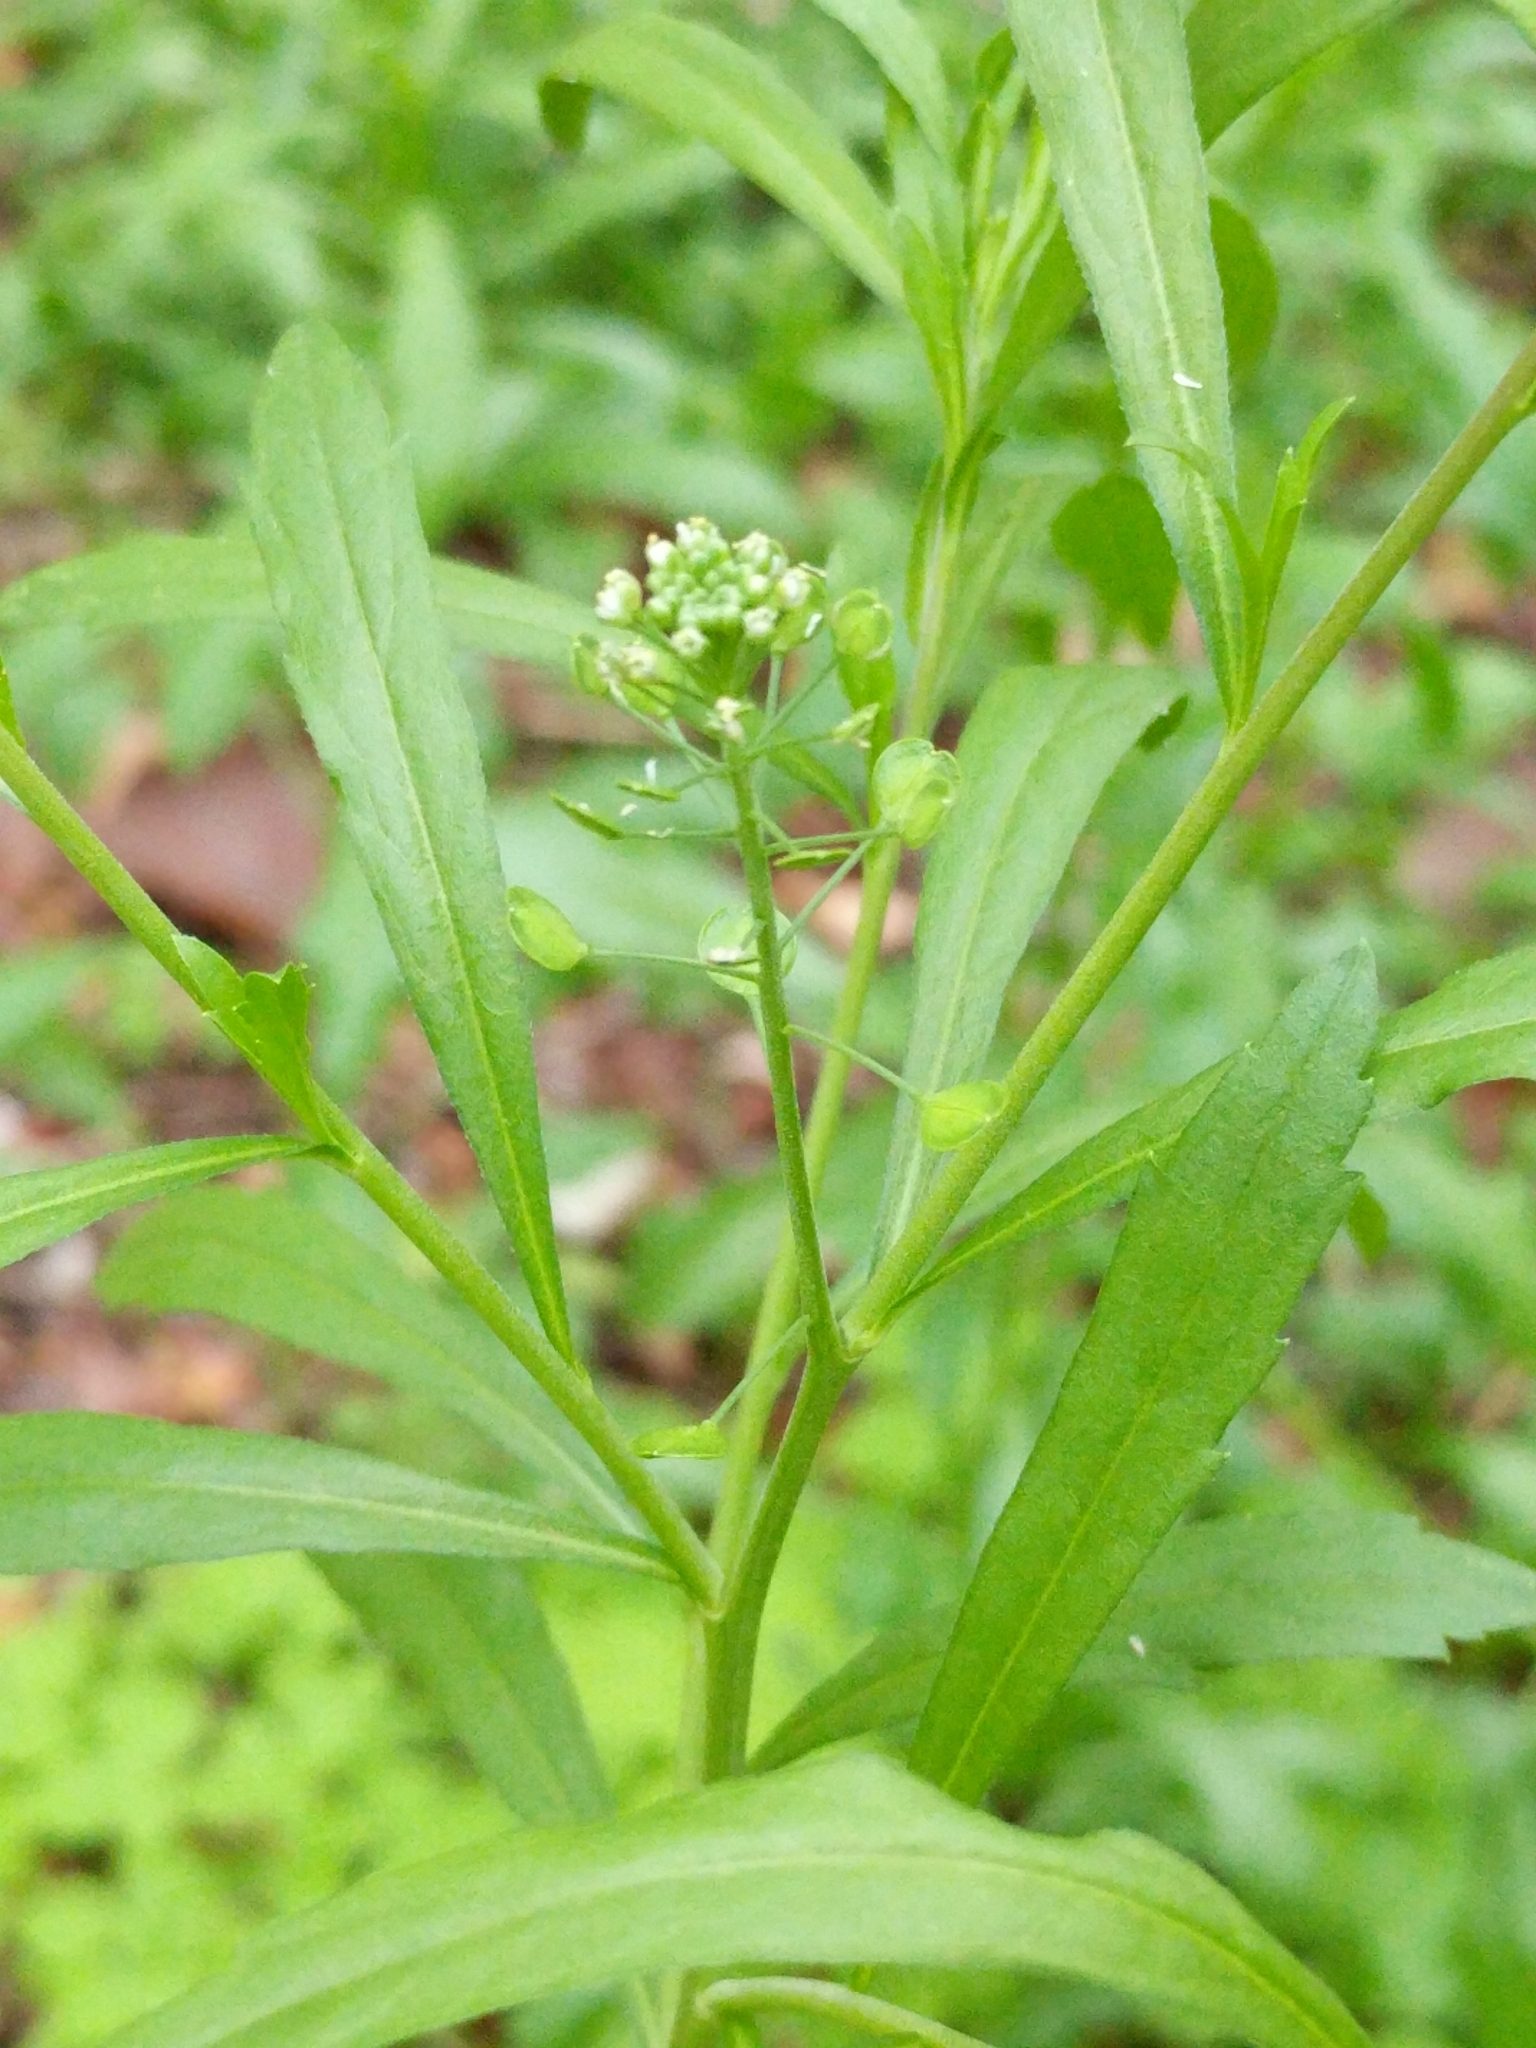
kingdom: Plantae
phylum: Tracheophyta
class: Magnoliopsida
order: Brassicales
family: Brassicaceae
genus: Lepidium
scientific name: Lepidium virginicum
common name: Least pepperwort
